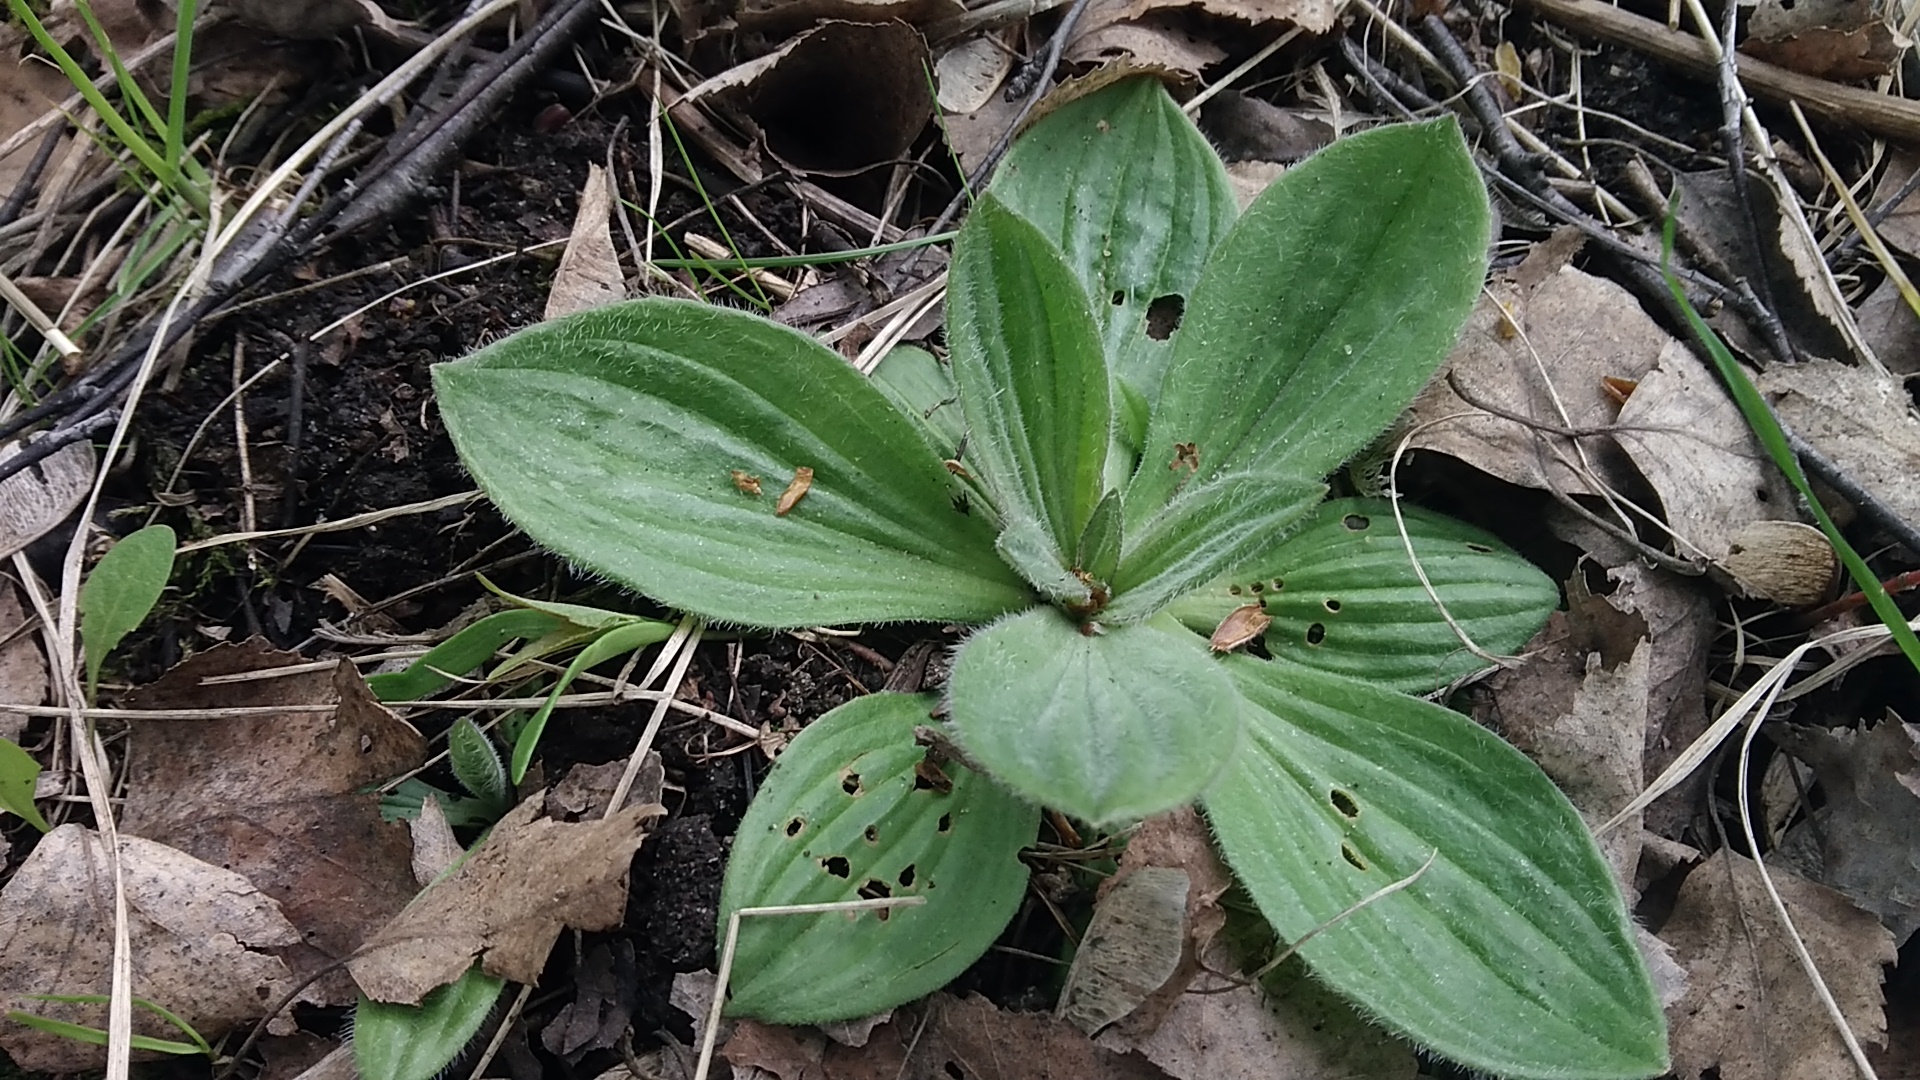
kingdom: Plantae
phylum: Tracheophyta
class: Magnoliopsida
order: Lamiales
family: Plantaginaceae
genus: Plantago
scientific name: Plantago media
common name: Hoary plantain
